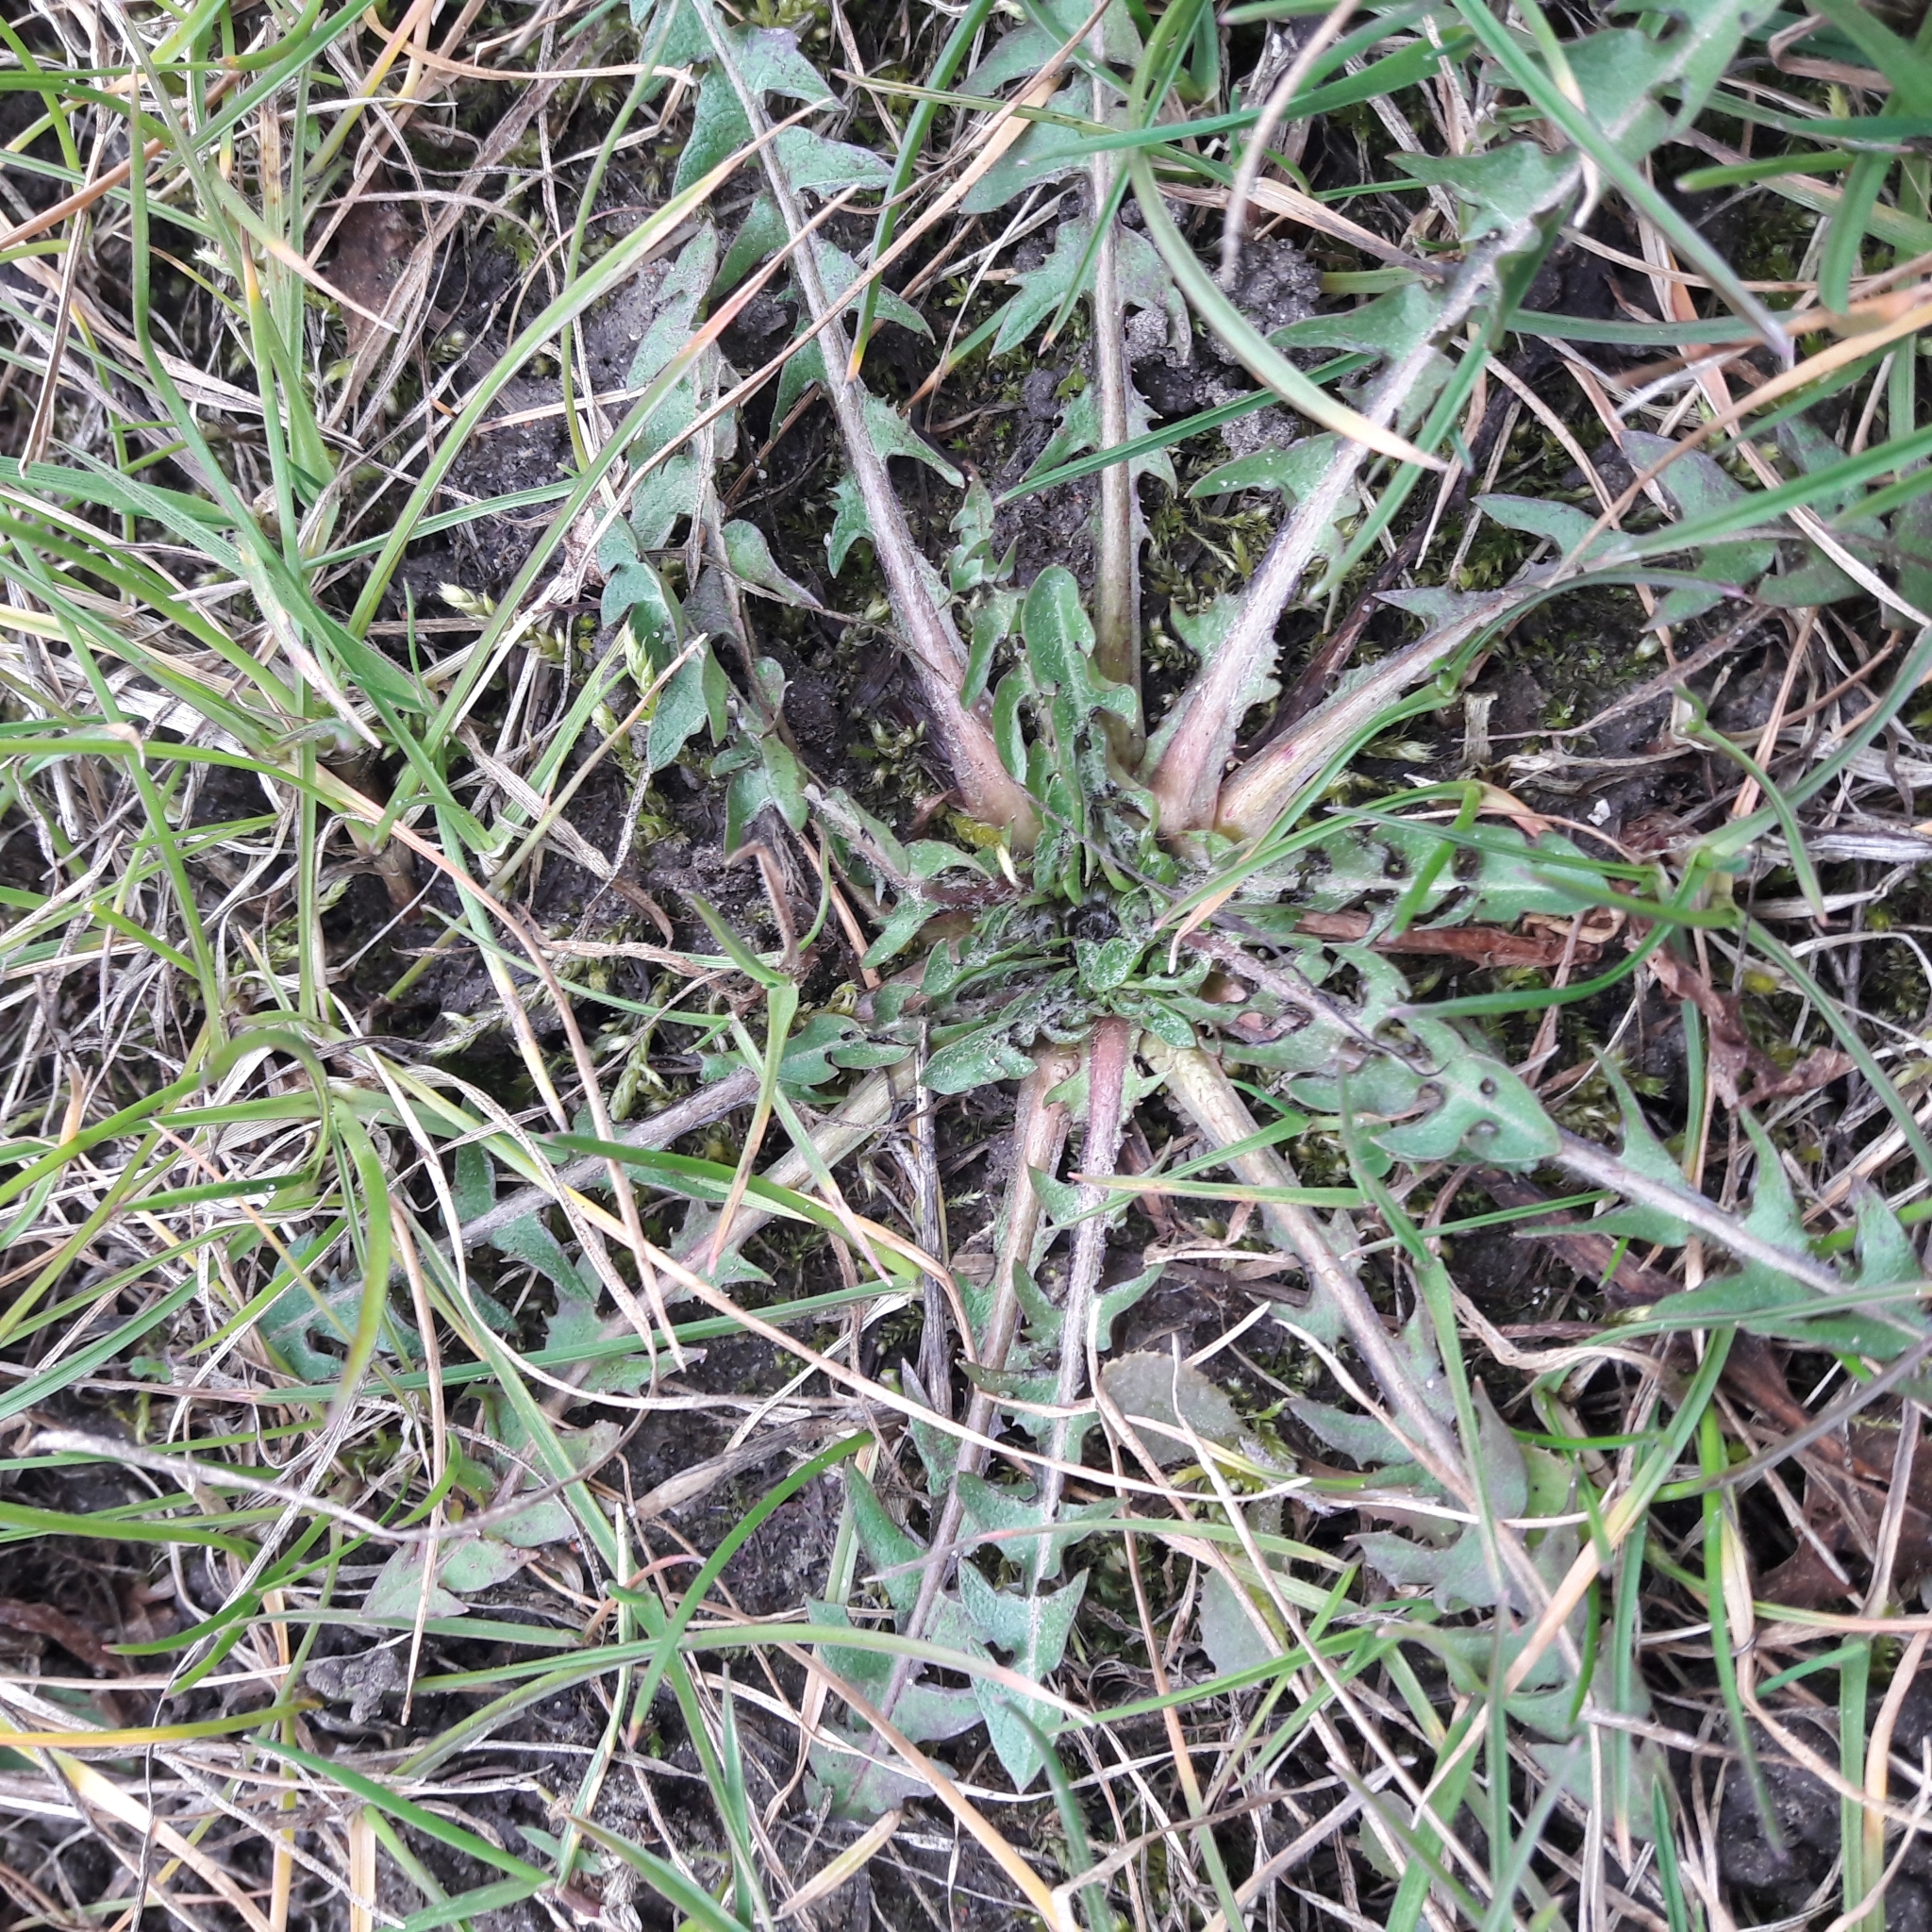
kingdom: Plantae
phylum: Tracheophyta
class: Magnoliopsida
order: Asterales
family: Asteraceae
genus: Taraxacum
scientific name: Taraxacum officinale
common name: Common dandelion
